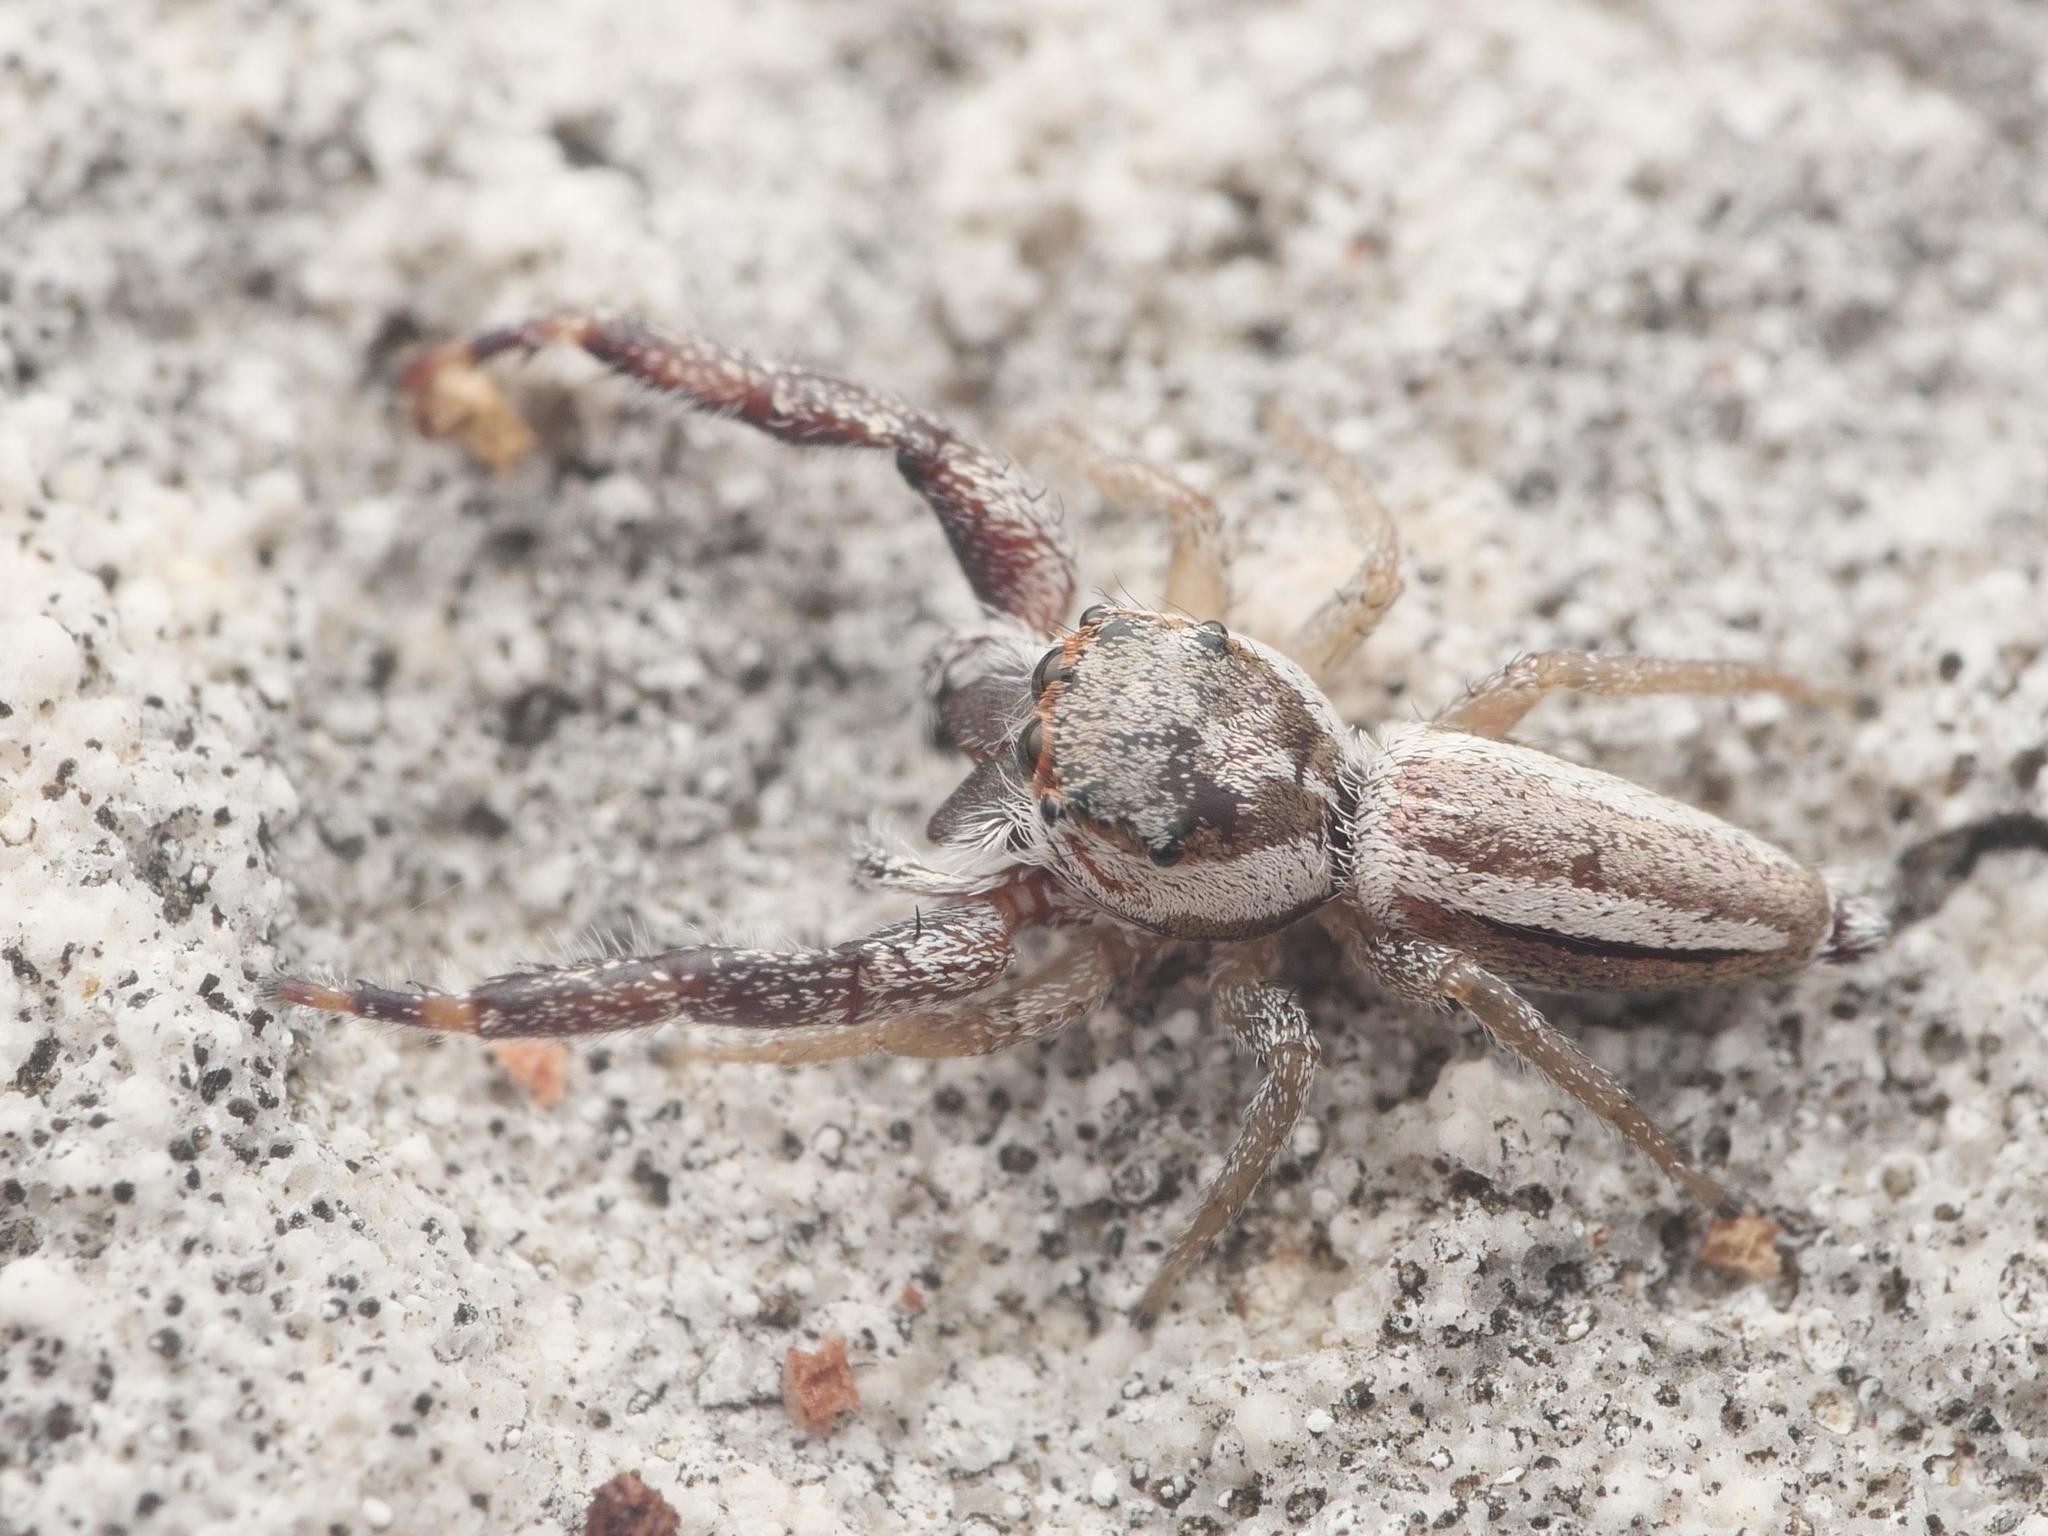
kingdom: Animalia
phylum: Arthropoda
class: Arachnida
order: Araneae
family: Salticidae
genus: Hentzia
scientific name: Hentzia vittata
